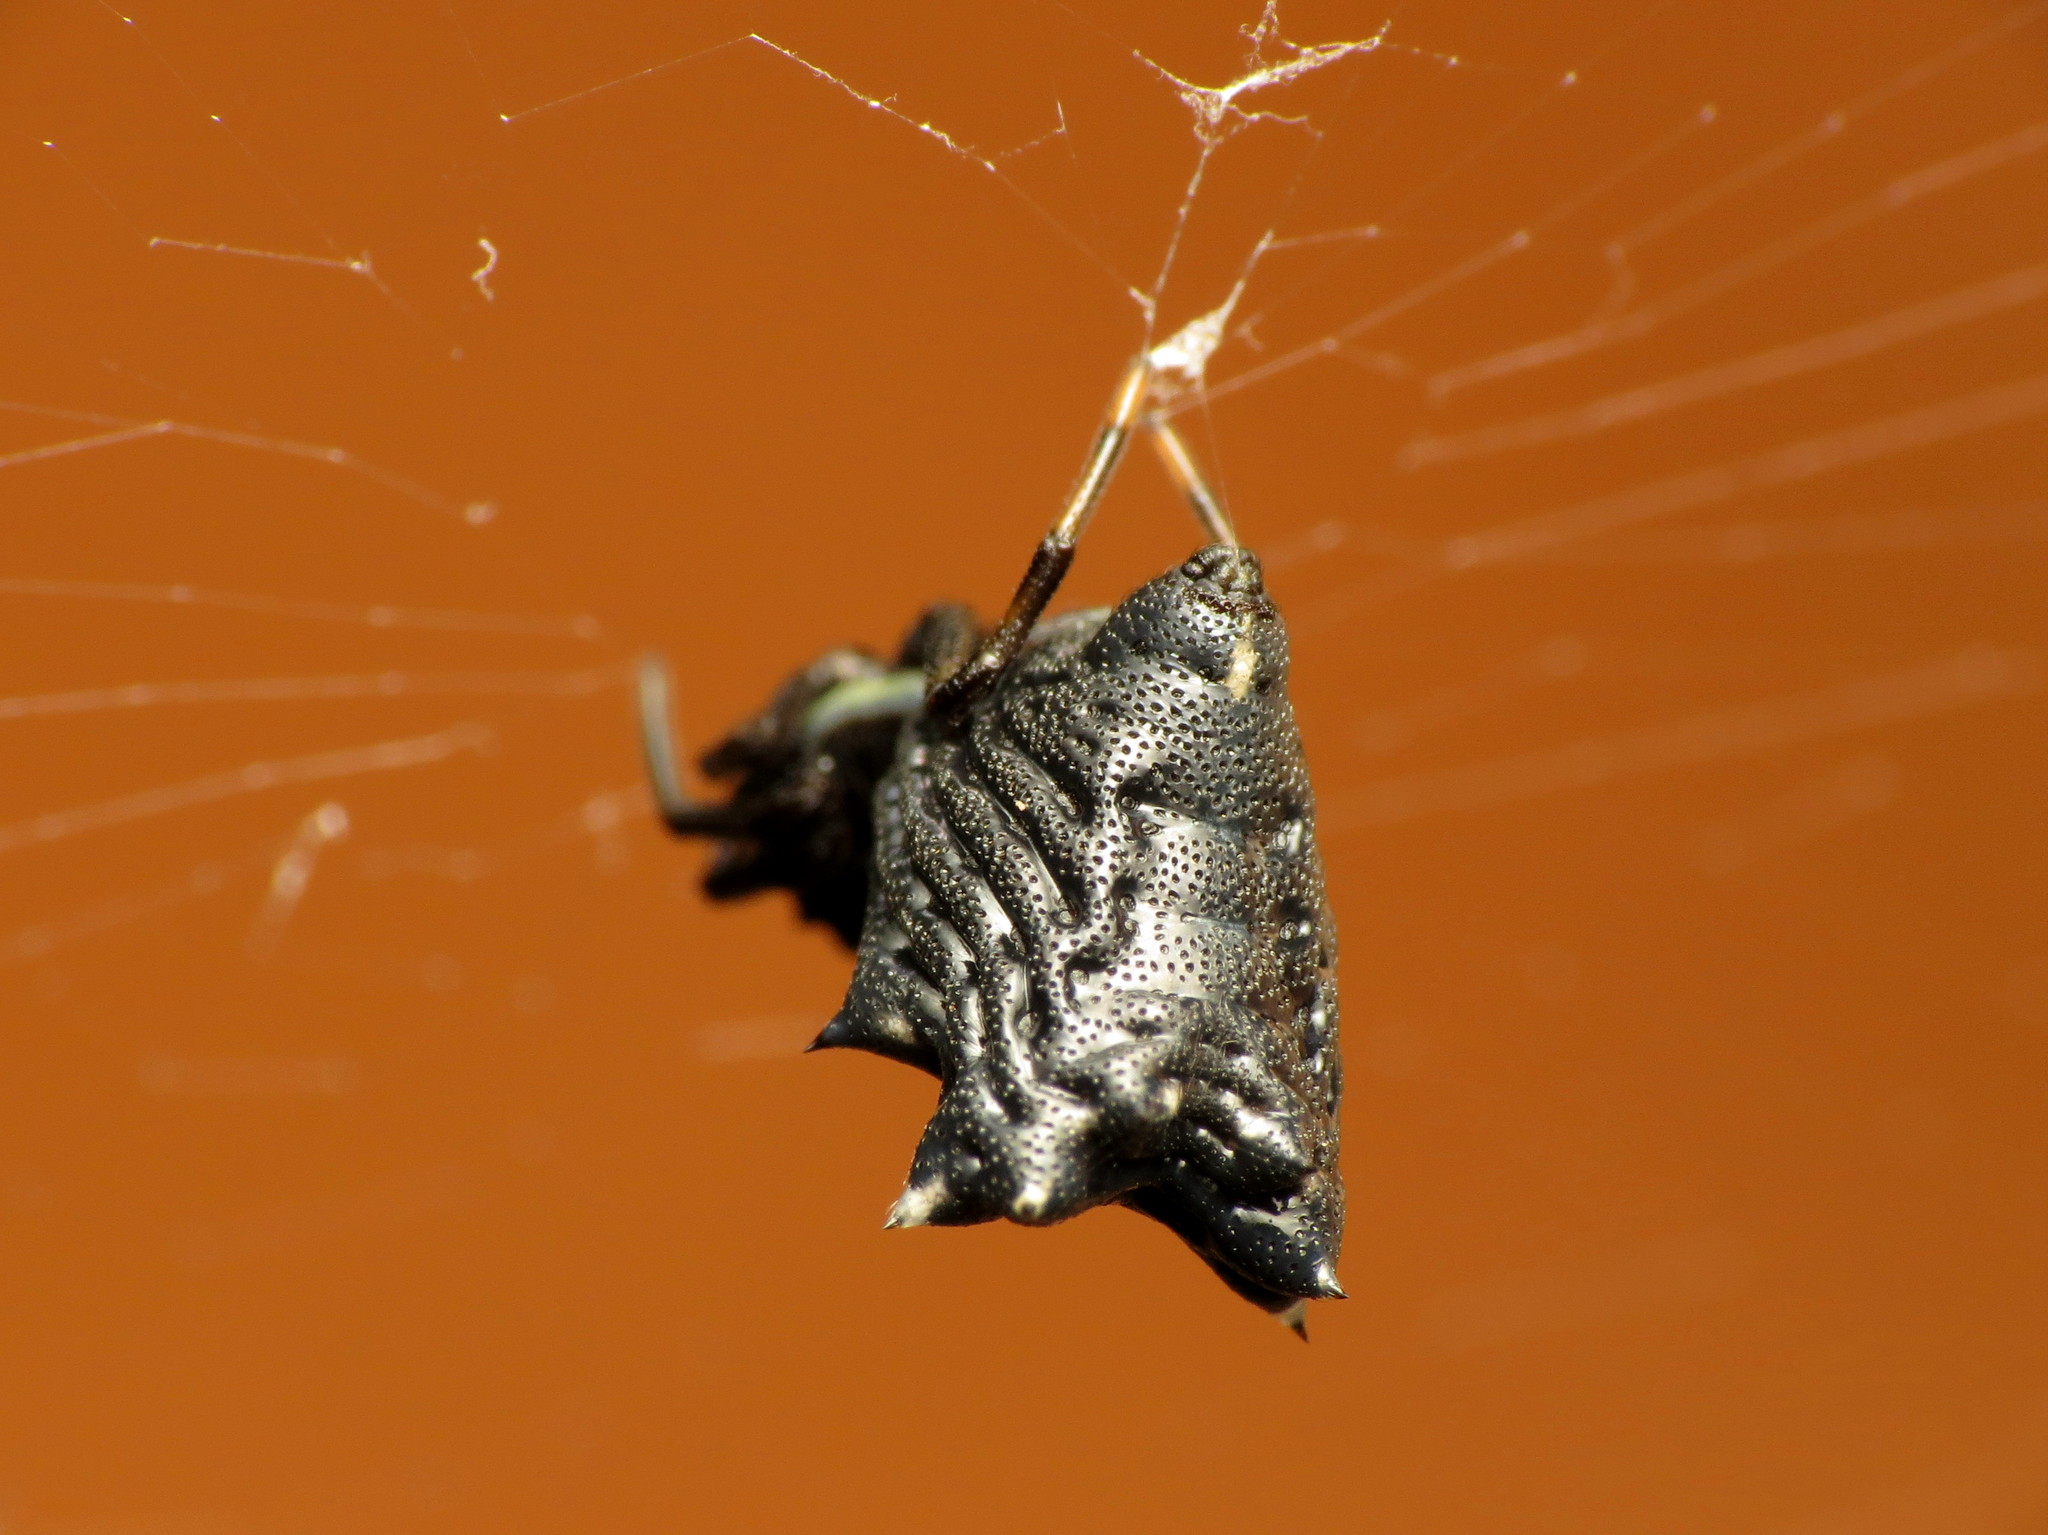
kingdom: Animalia
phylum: Arthropoda
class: Arachnida
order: Araneae
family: Araneidae
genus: Micrathena
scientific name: Micrathena gracilis
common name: Orb weavers
